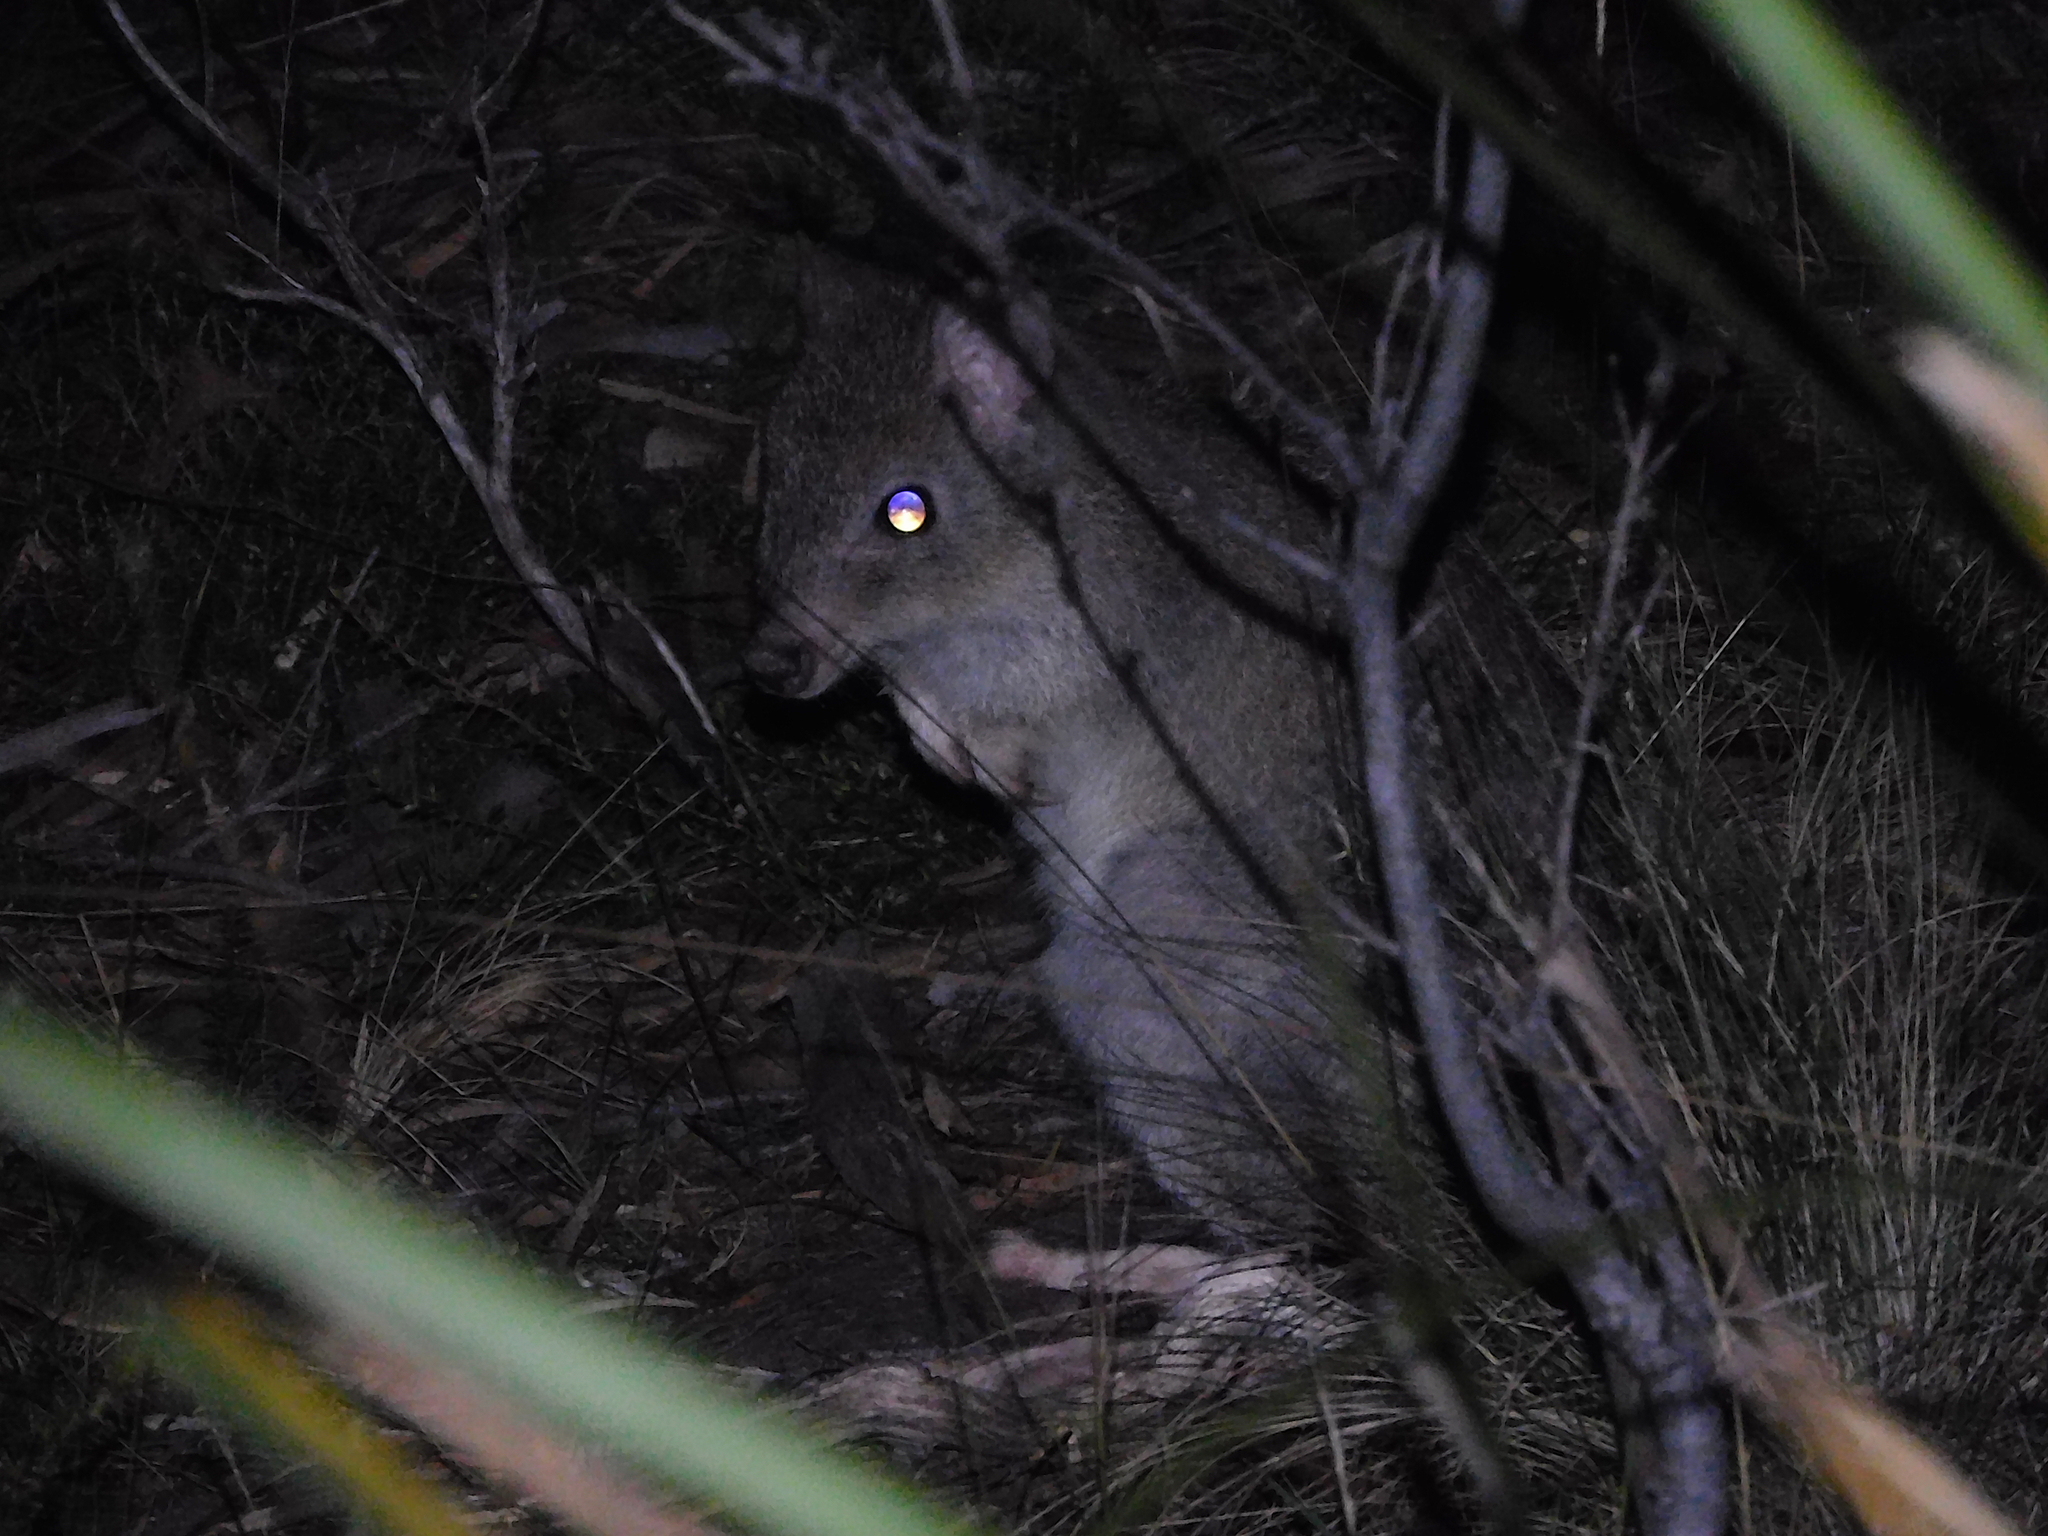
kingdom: Animalia
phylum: Chordata
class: Mammalia
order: Diprotodontia
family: Potoroidae
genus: Bettongia
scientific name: Bettongia gaimardi
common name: Eastern bettong
